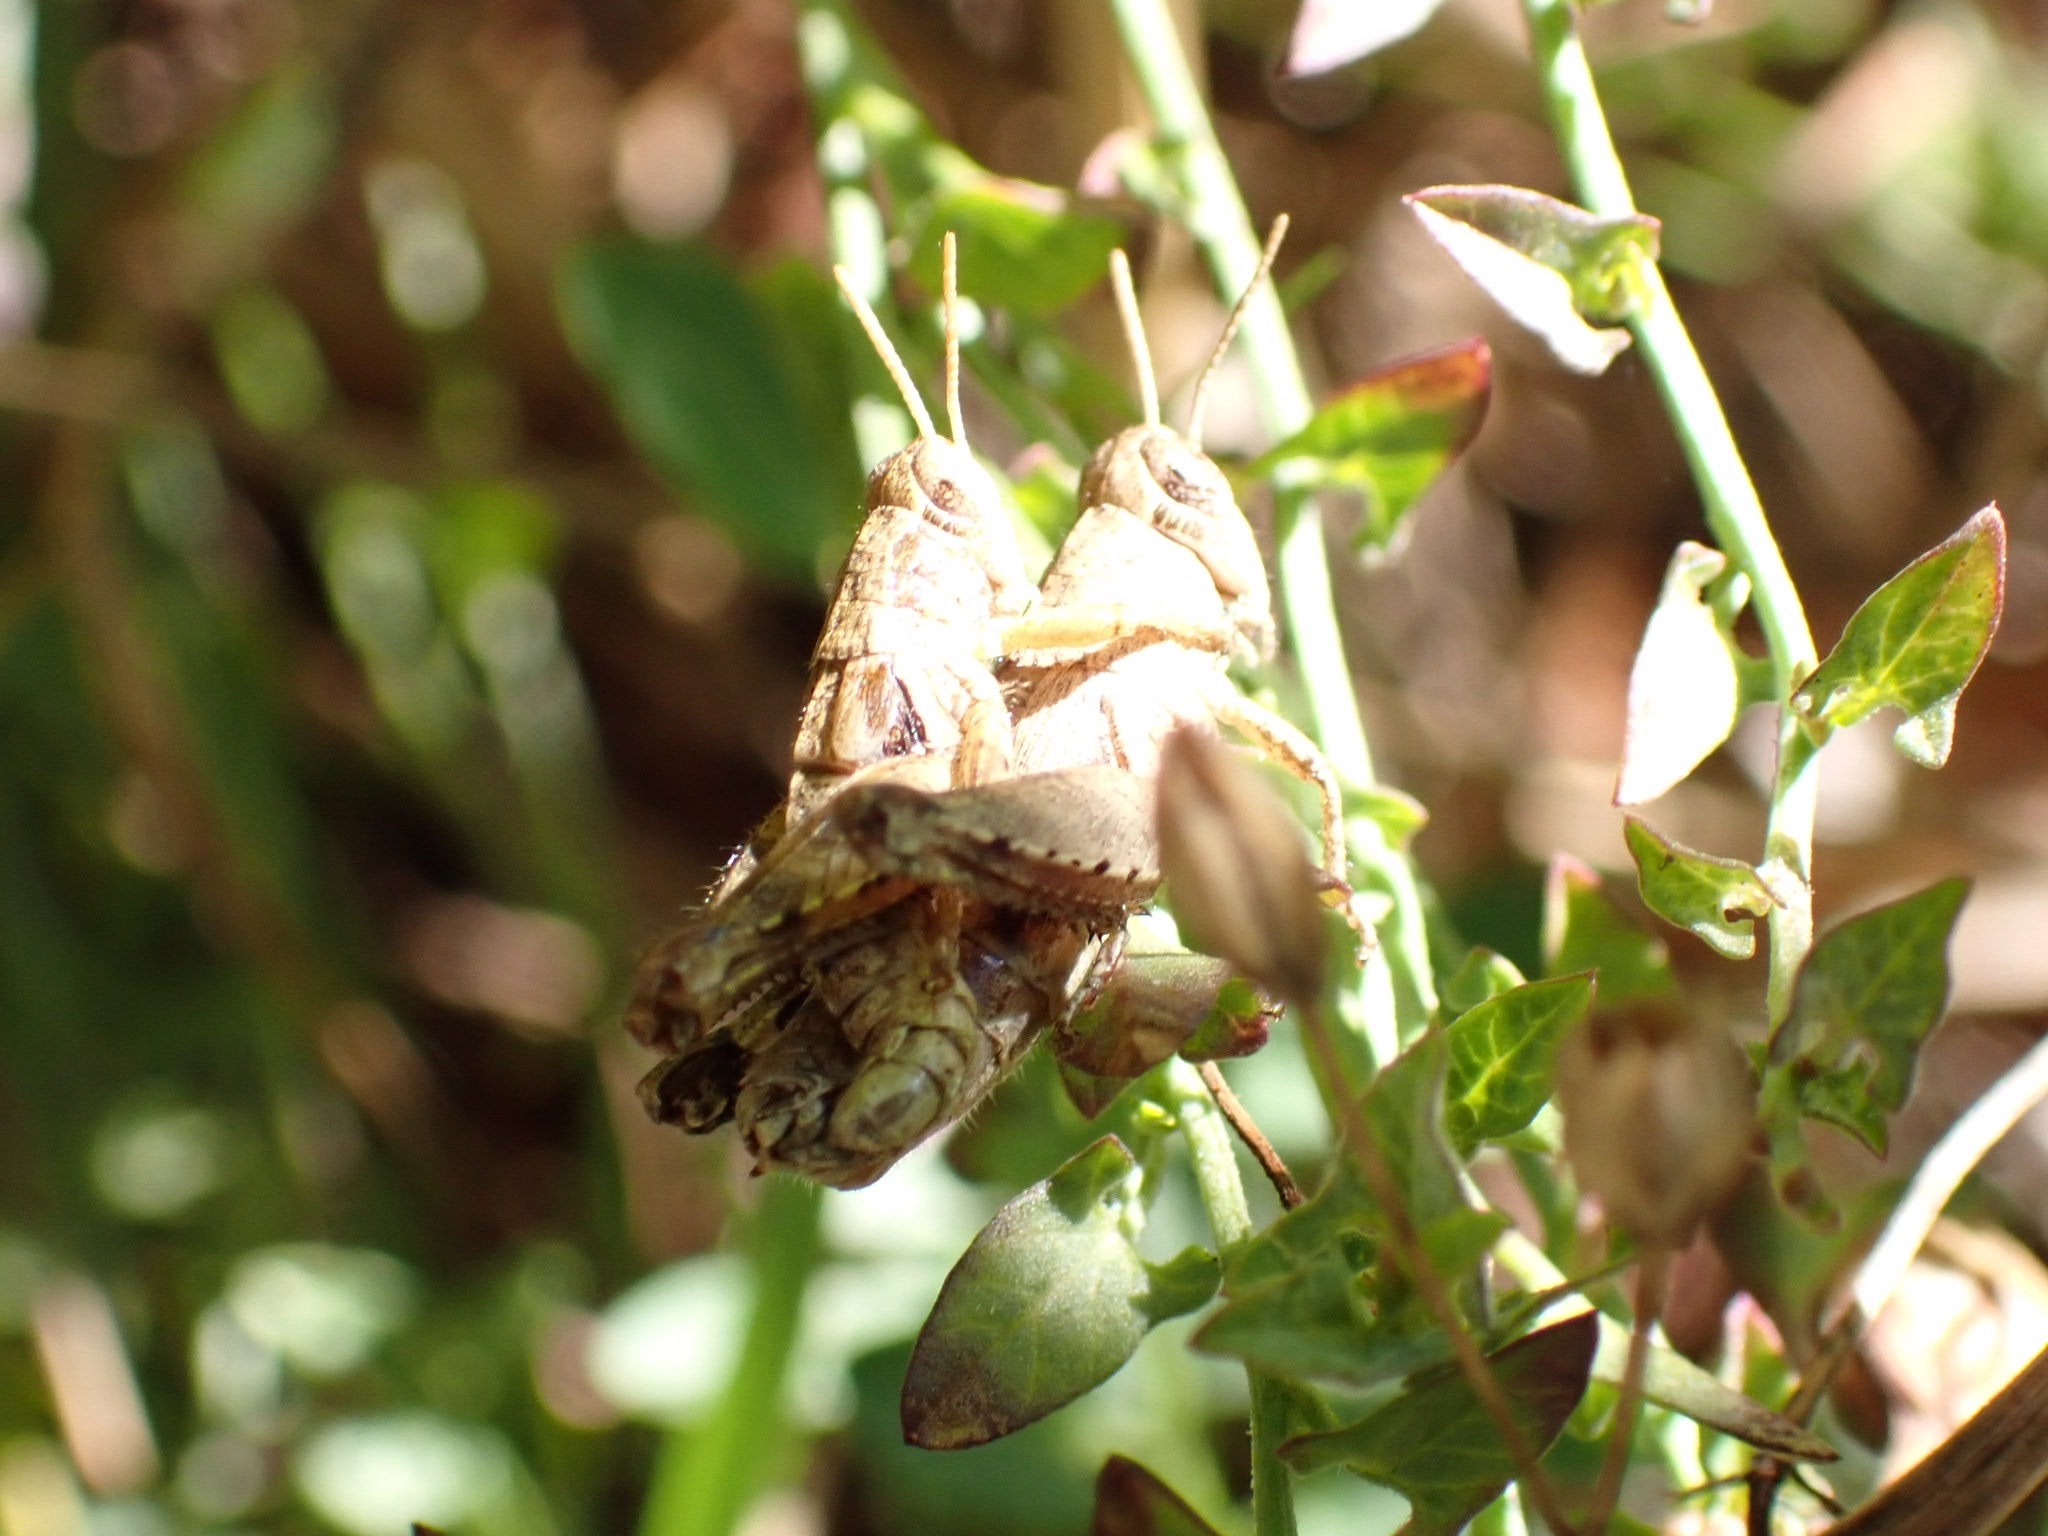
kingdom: Animalia
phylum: Arthropoda
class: Insecta
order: Orthoptera
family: Acrididae
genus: Pezotettix
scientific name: Pezotettix giornae
